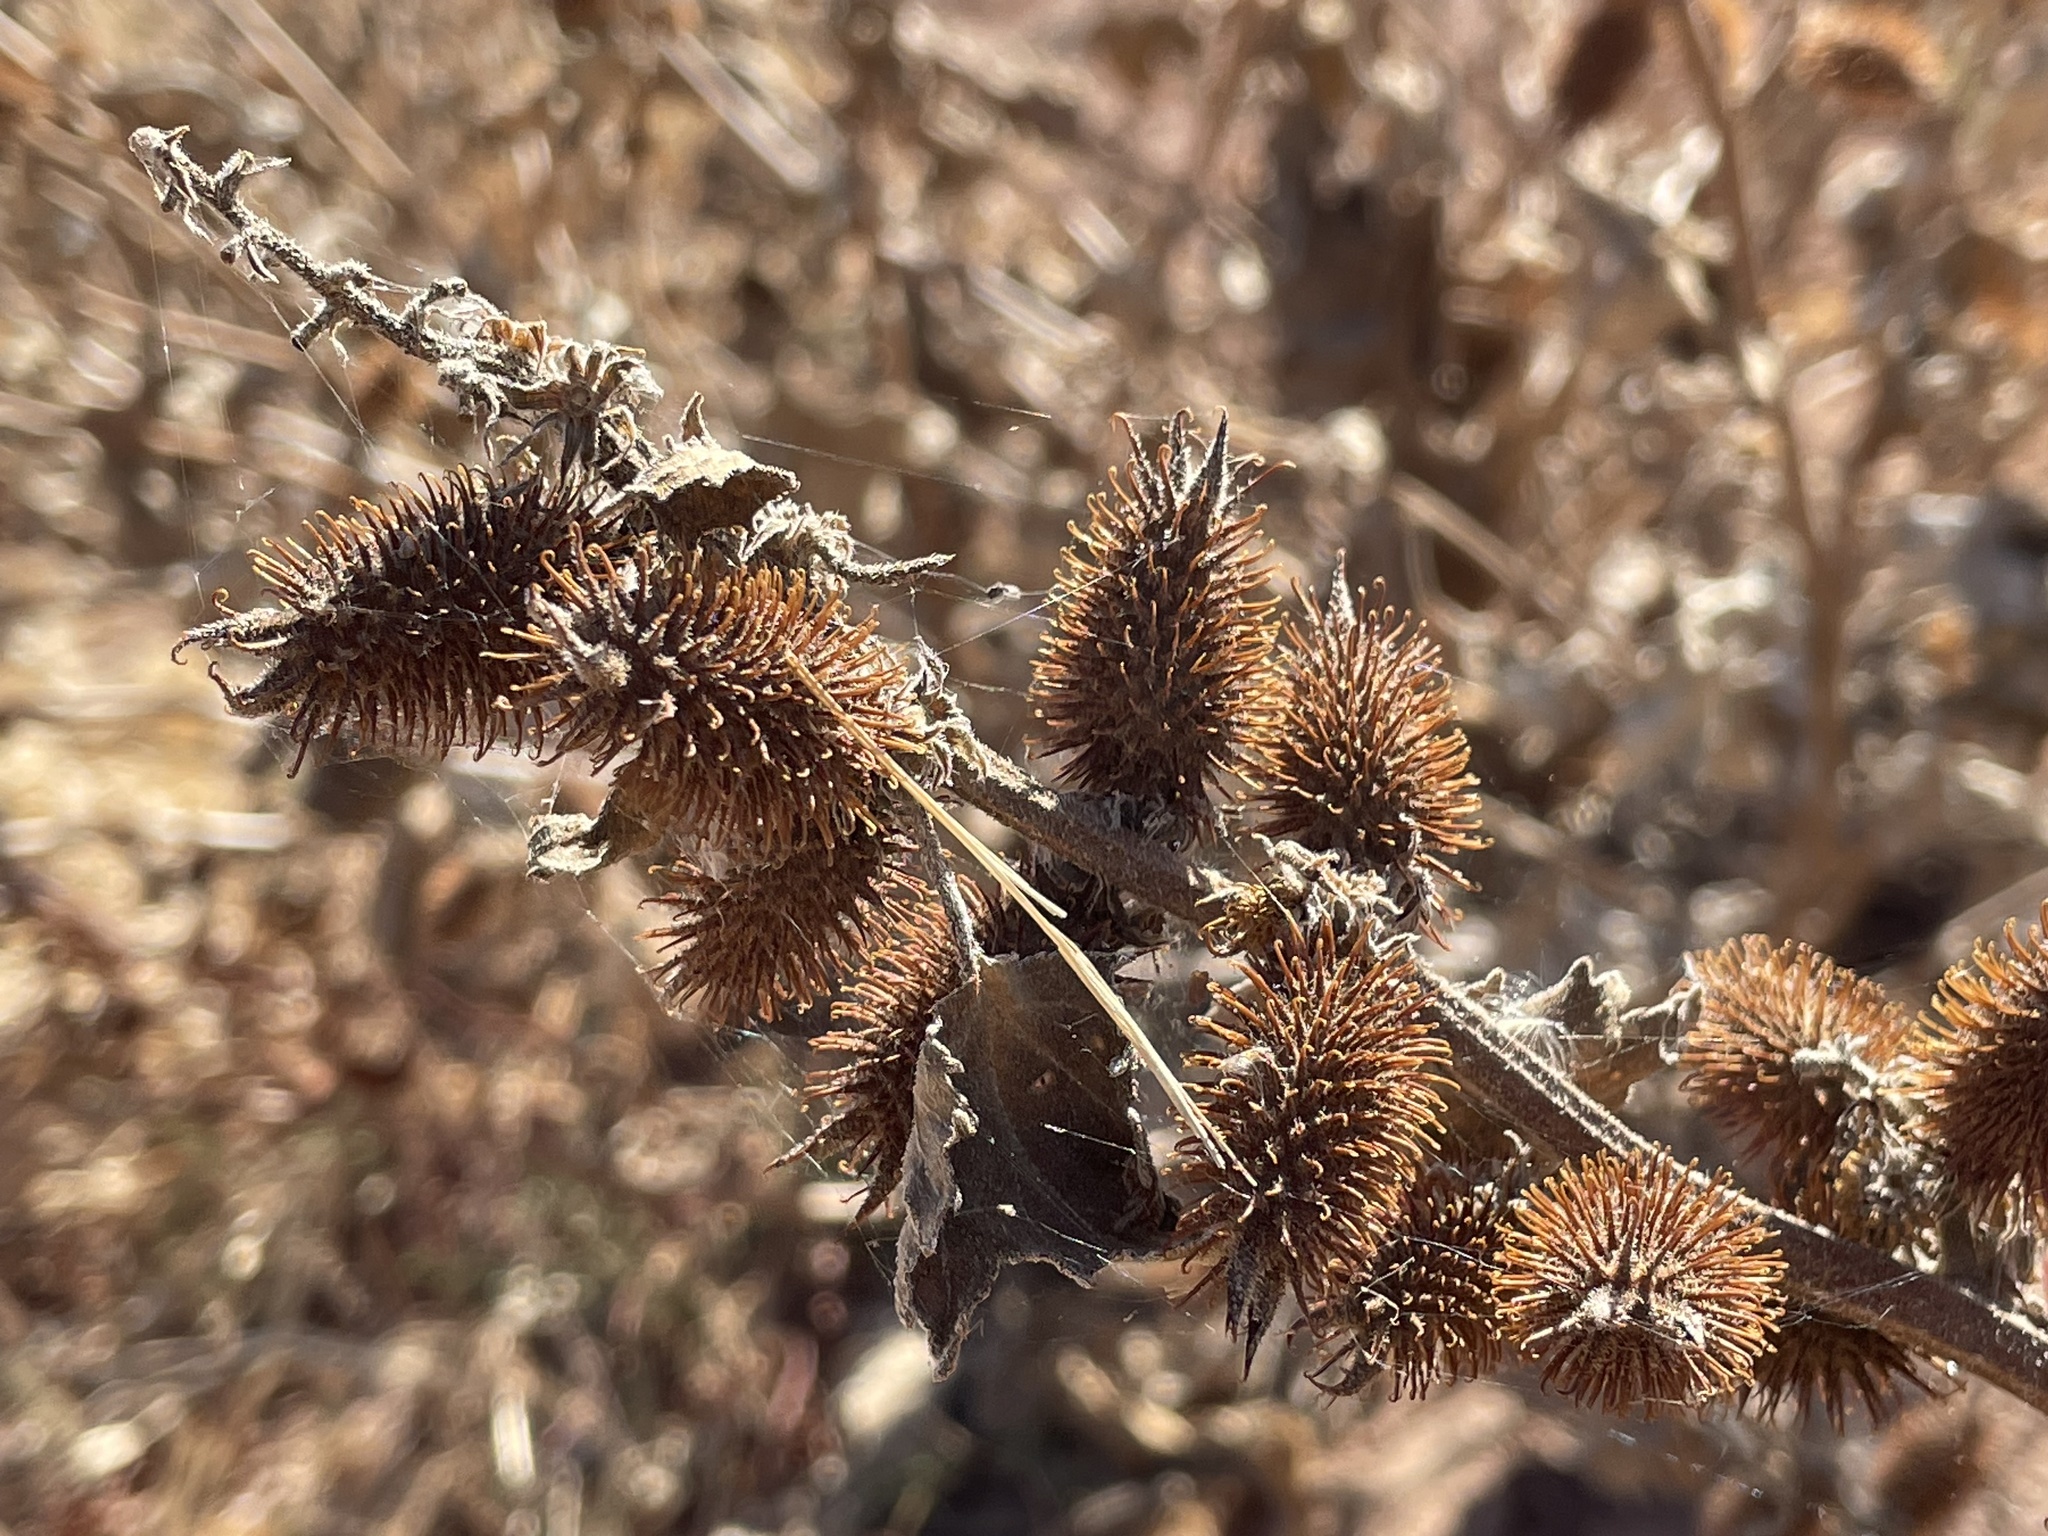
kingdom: Plantae
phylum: Tracheophyta
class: Magnoliopsida
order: Asterales
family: Asteraceae
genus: Xanthium
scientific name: Xanthium strumarium
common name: Rough cocklebur
